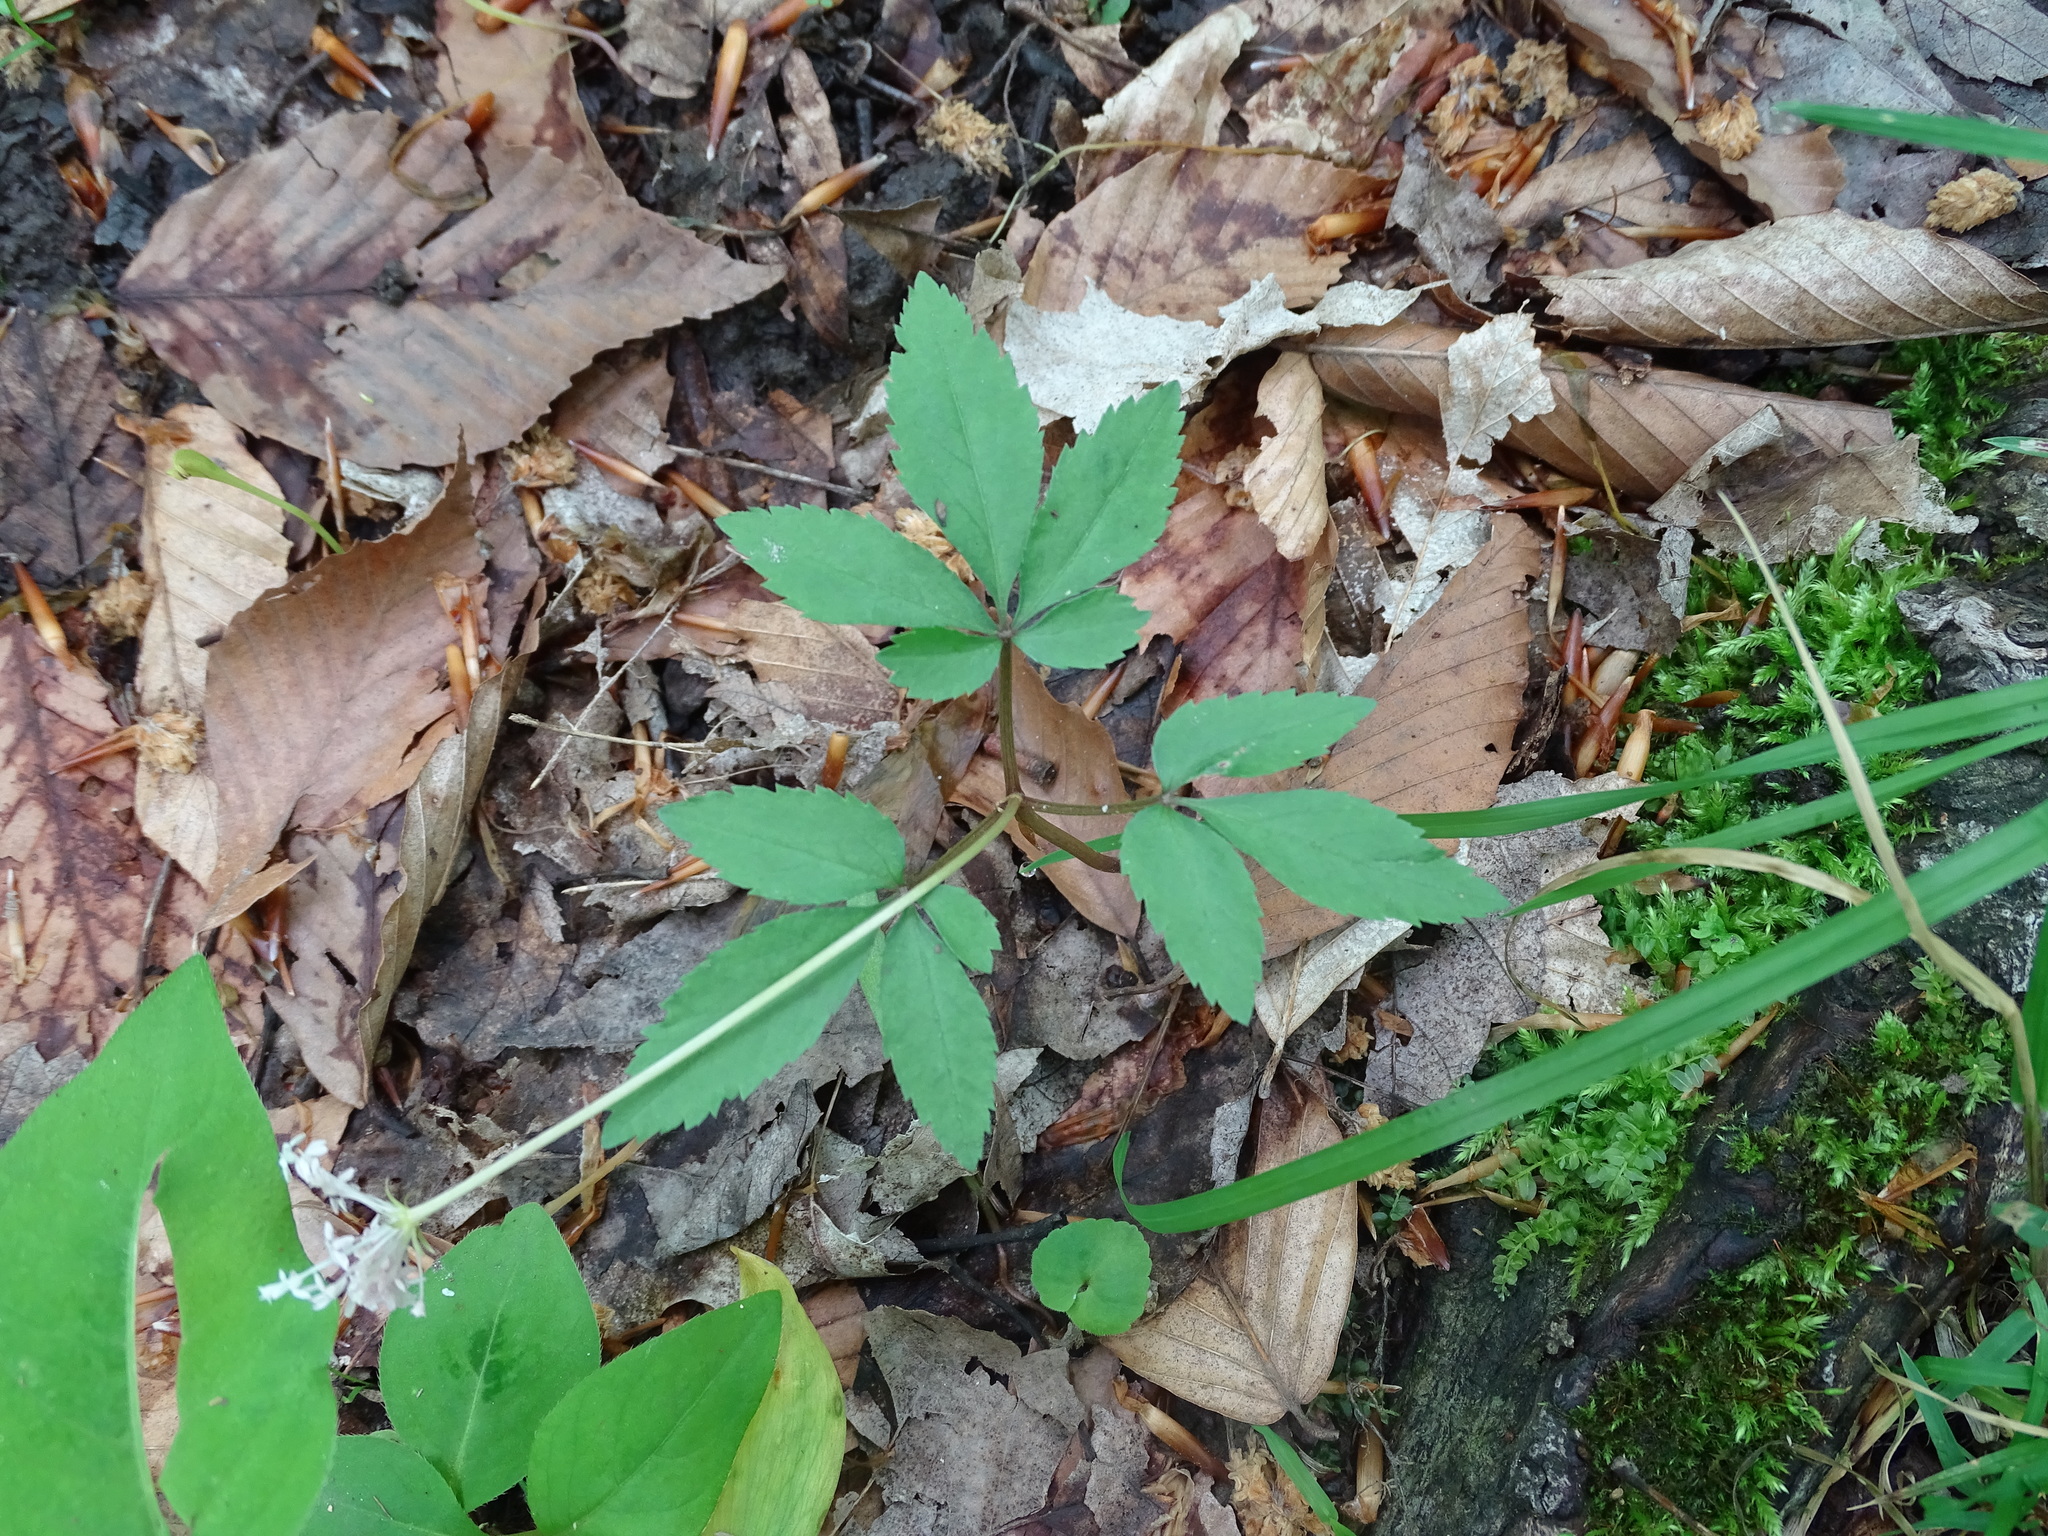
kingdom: Plantae
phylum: Tracheophyta
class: Magnoliopsida
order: Apiales
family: Araliaceae
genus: Panax
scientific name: Panax trifolius
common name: Dwarf ginseng
